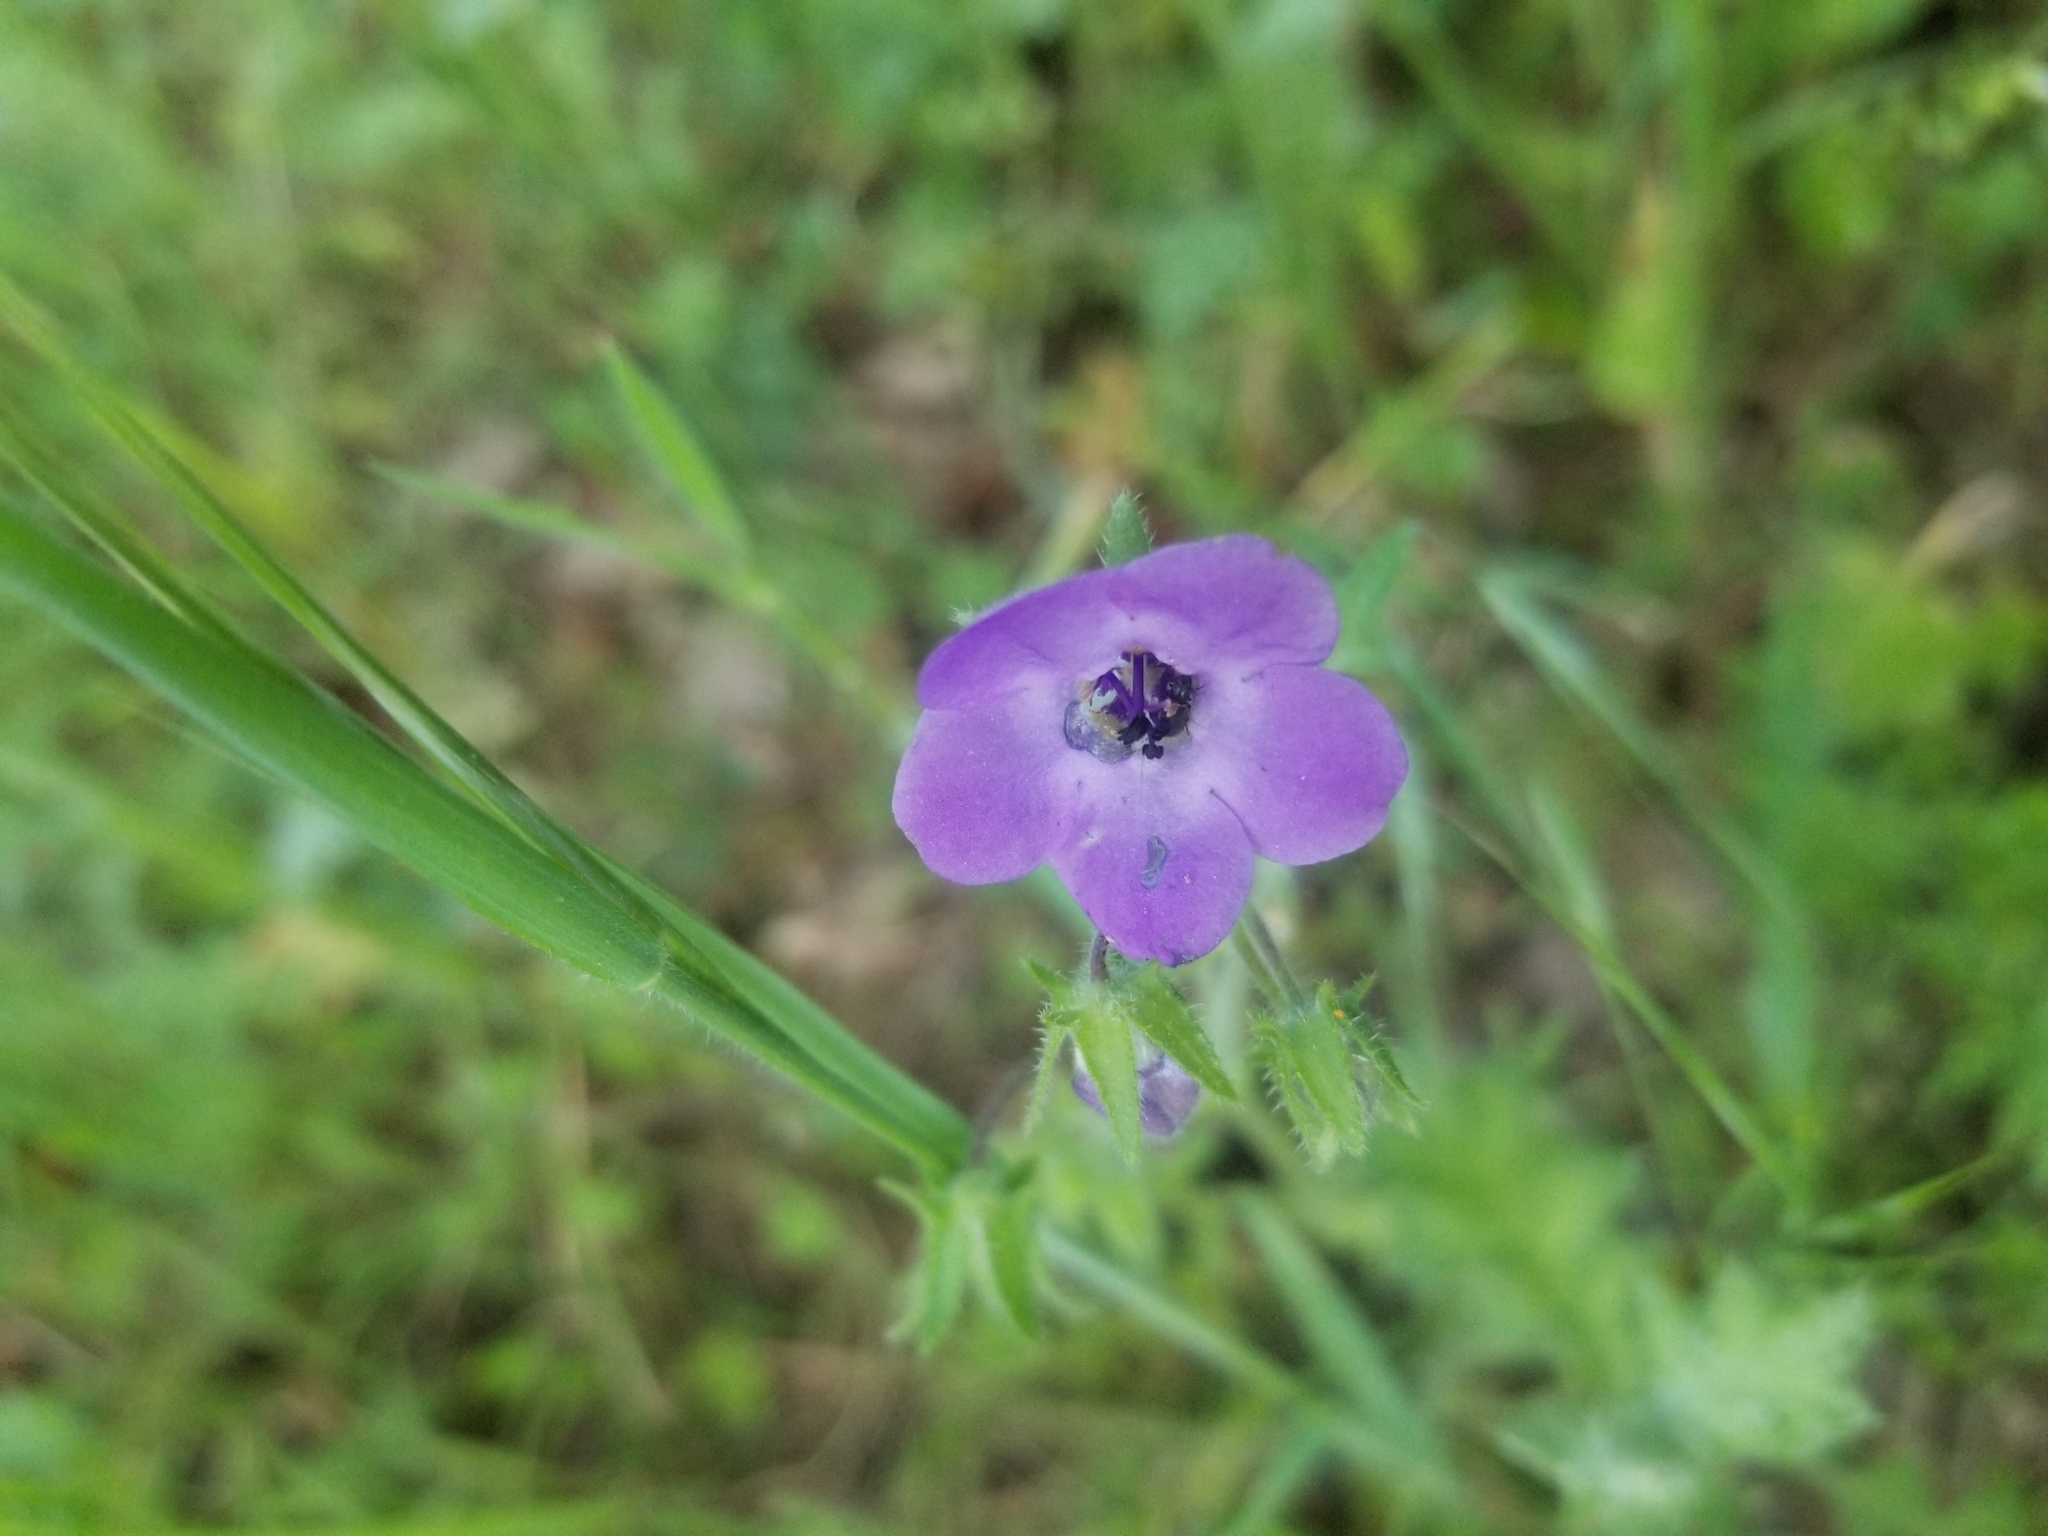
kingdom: Plantae
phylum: Tracheophyta
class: Magnoliopsida
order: Boraginales
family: Hydrophyllaceae
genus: Pholistoma
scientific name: Pholistoma auritum
